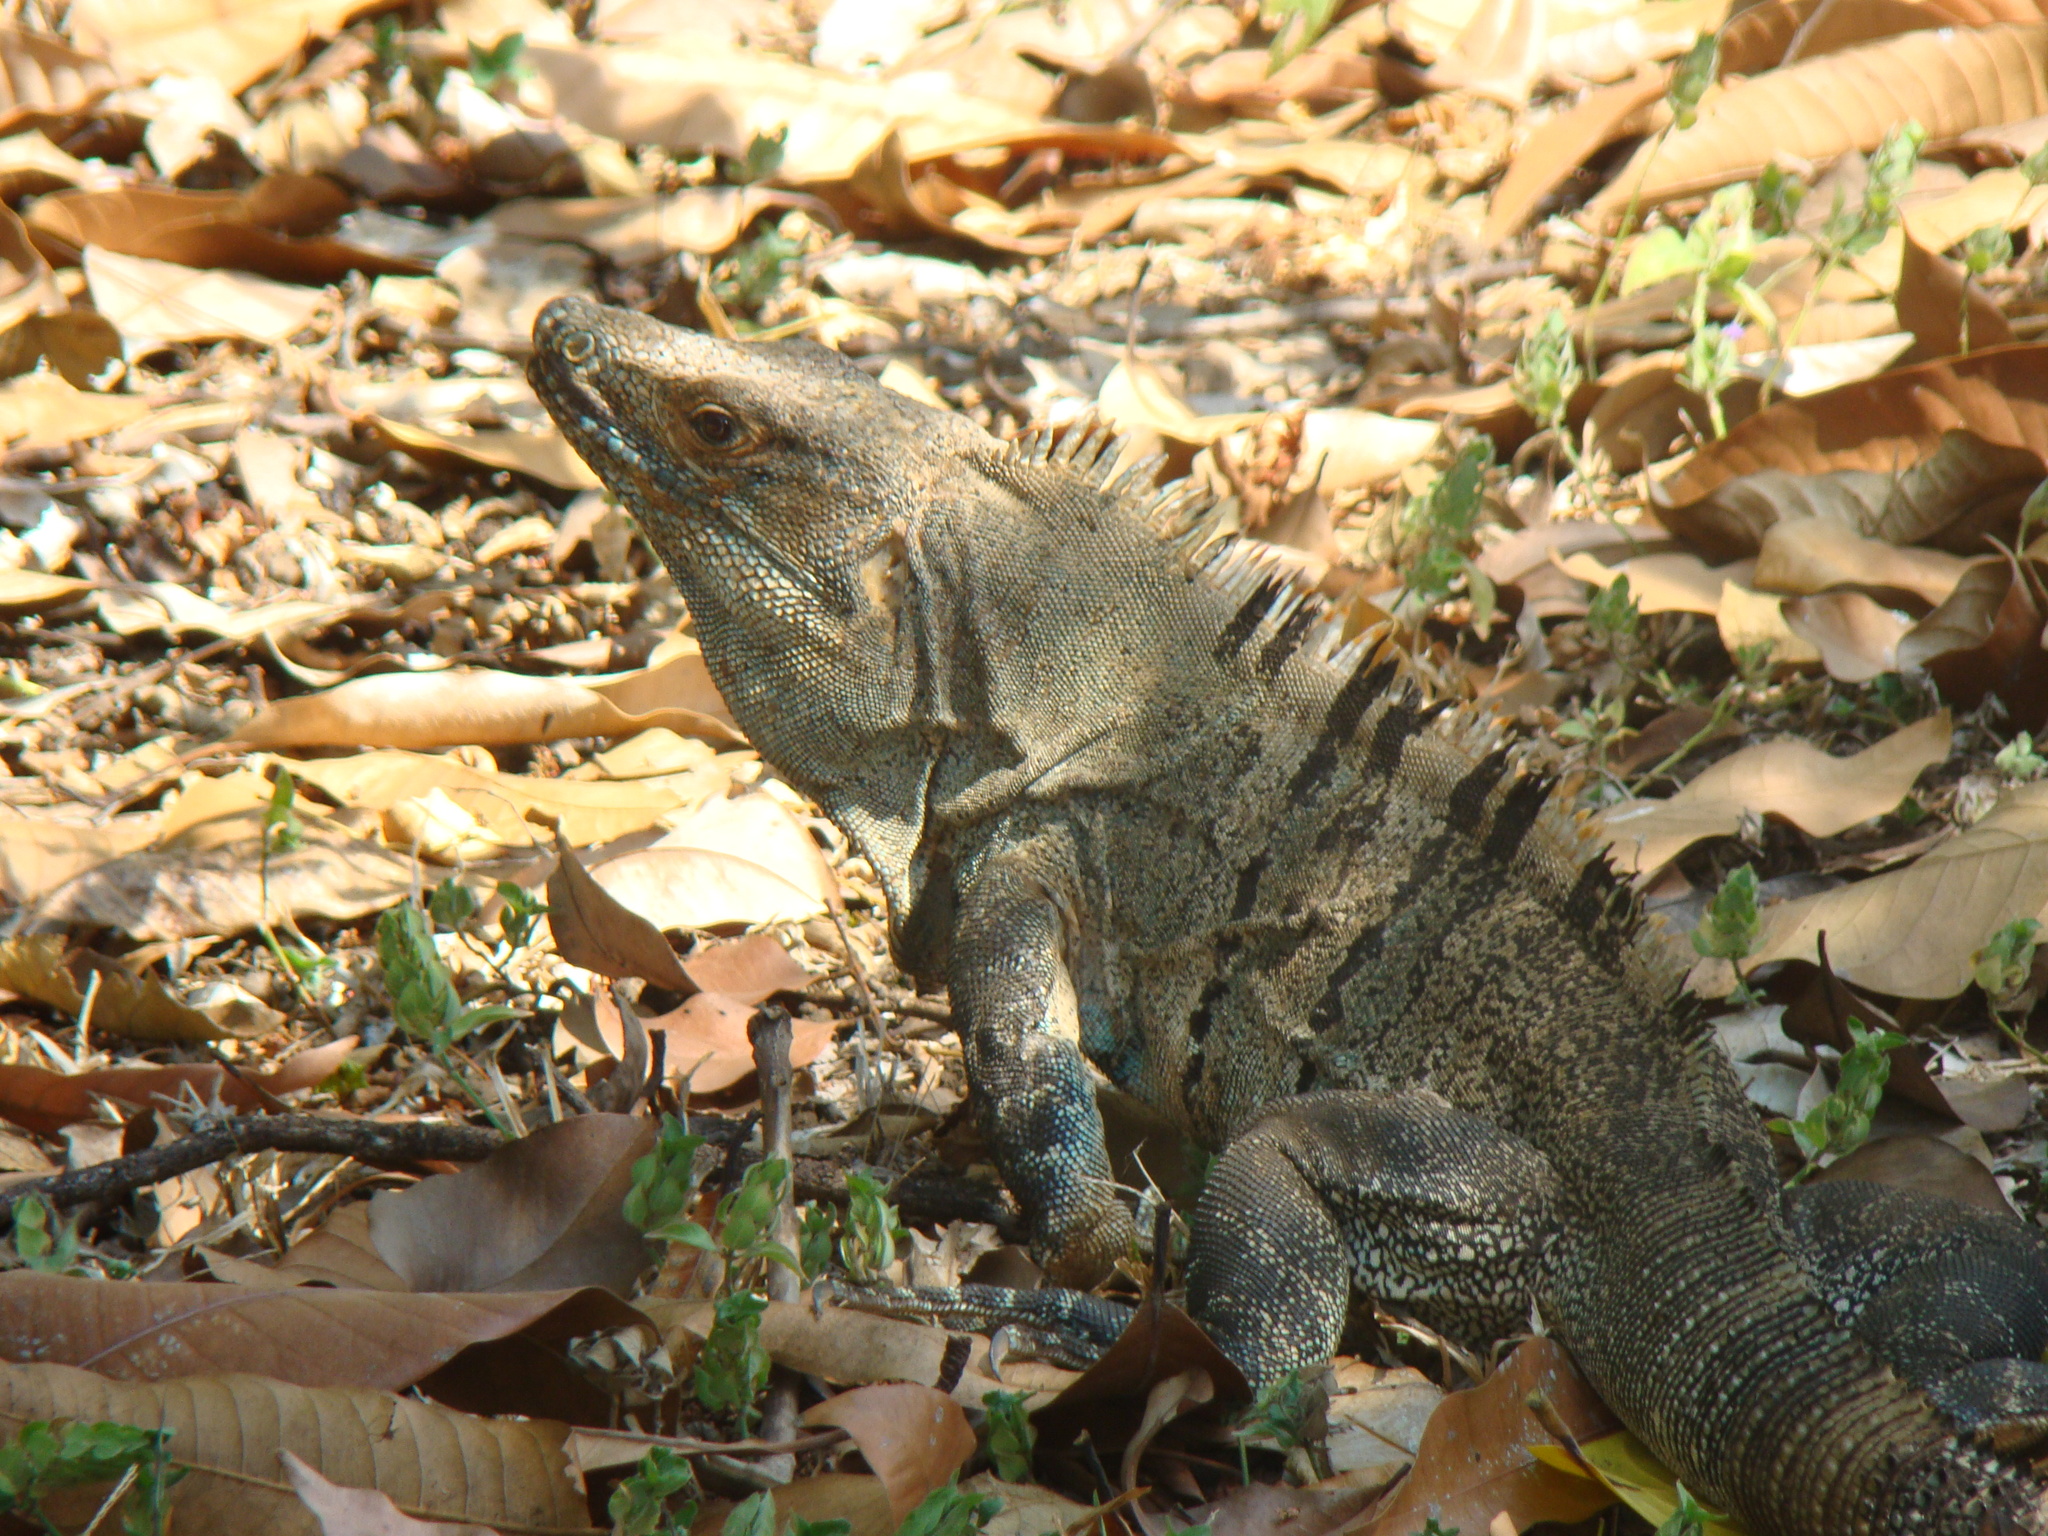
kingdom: Animalia
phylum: Chordata
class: Squamata
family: Iguanidae
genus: Ctenosaura
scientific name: Ctenosaura similis
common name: Black spiny-tailed iguana
